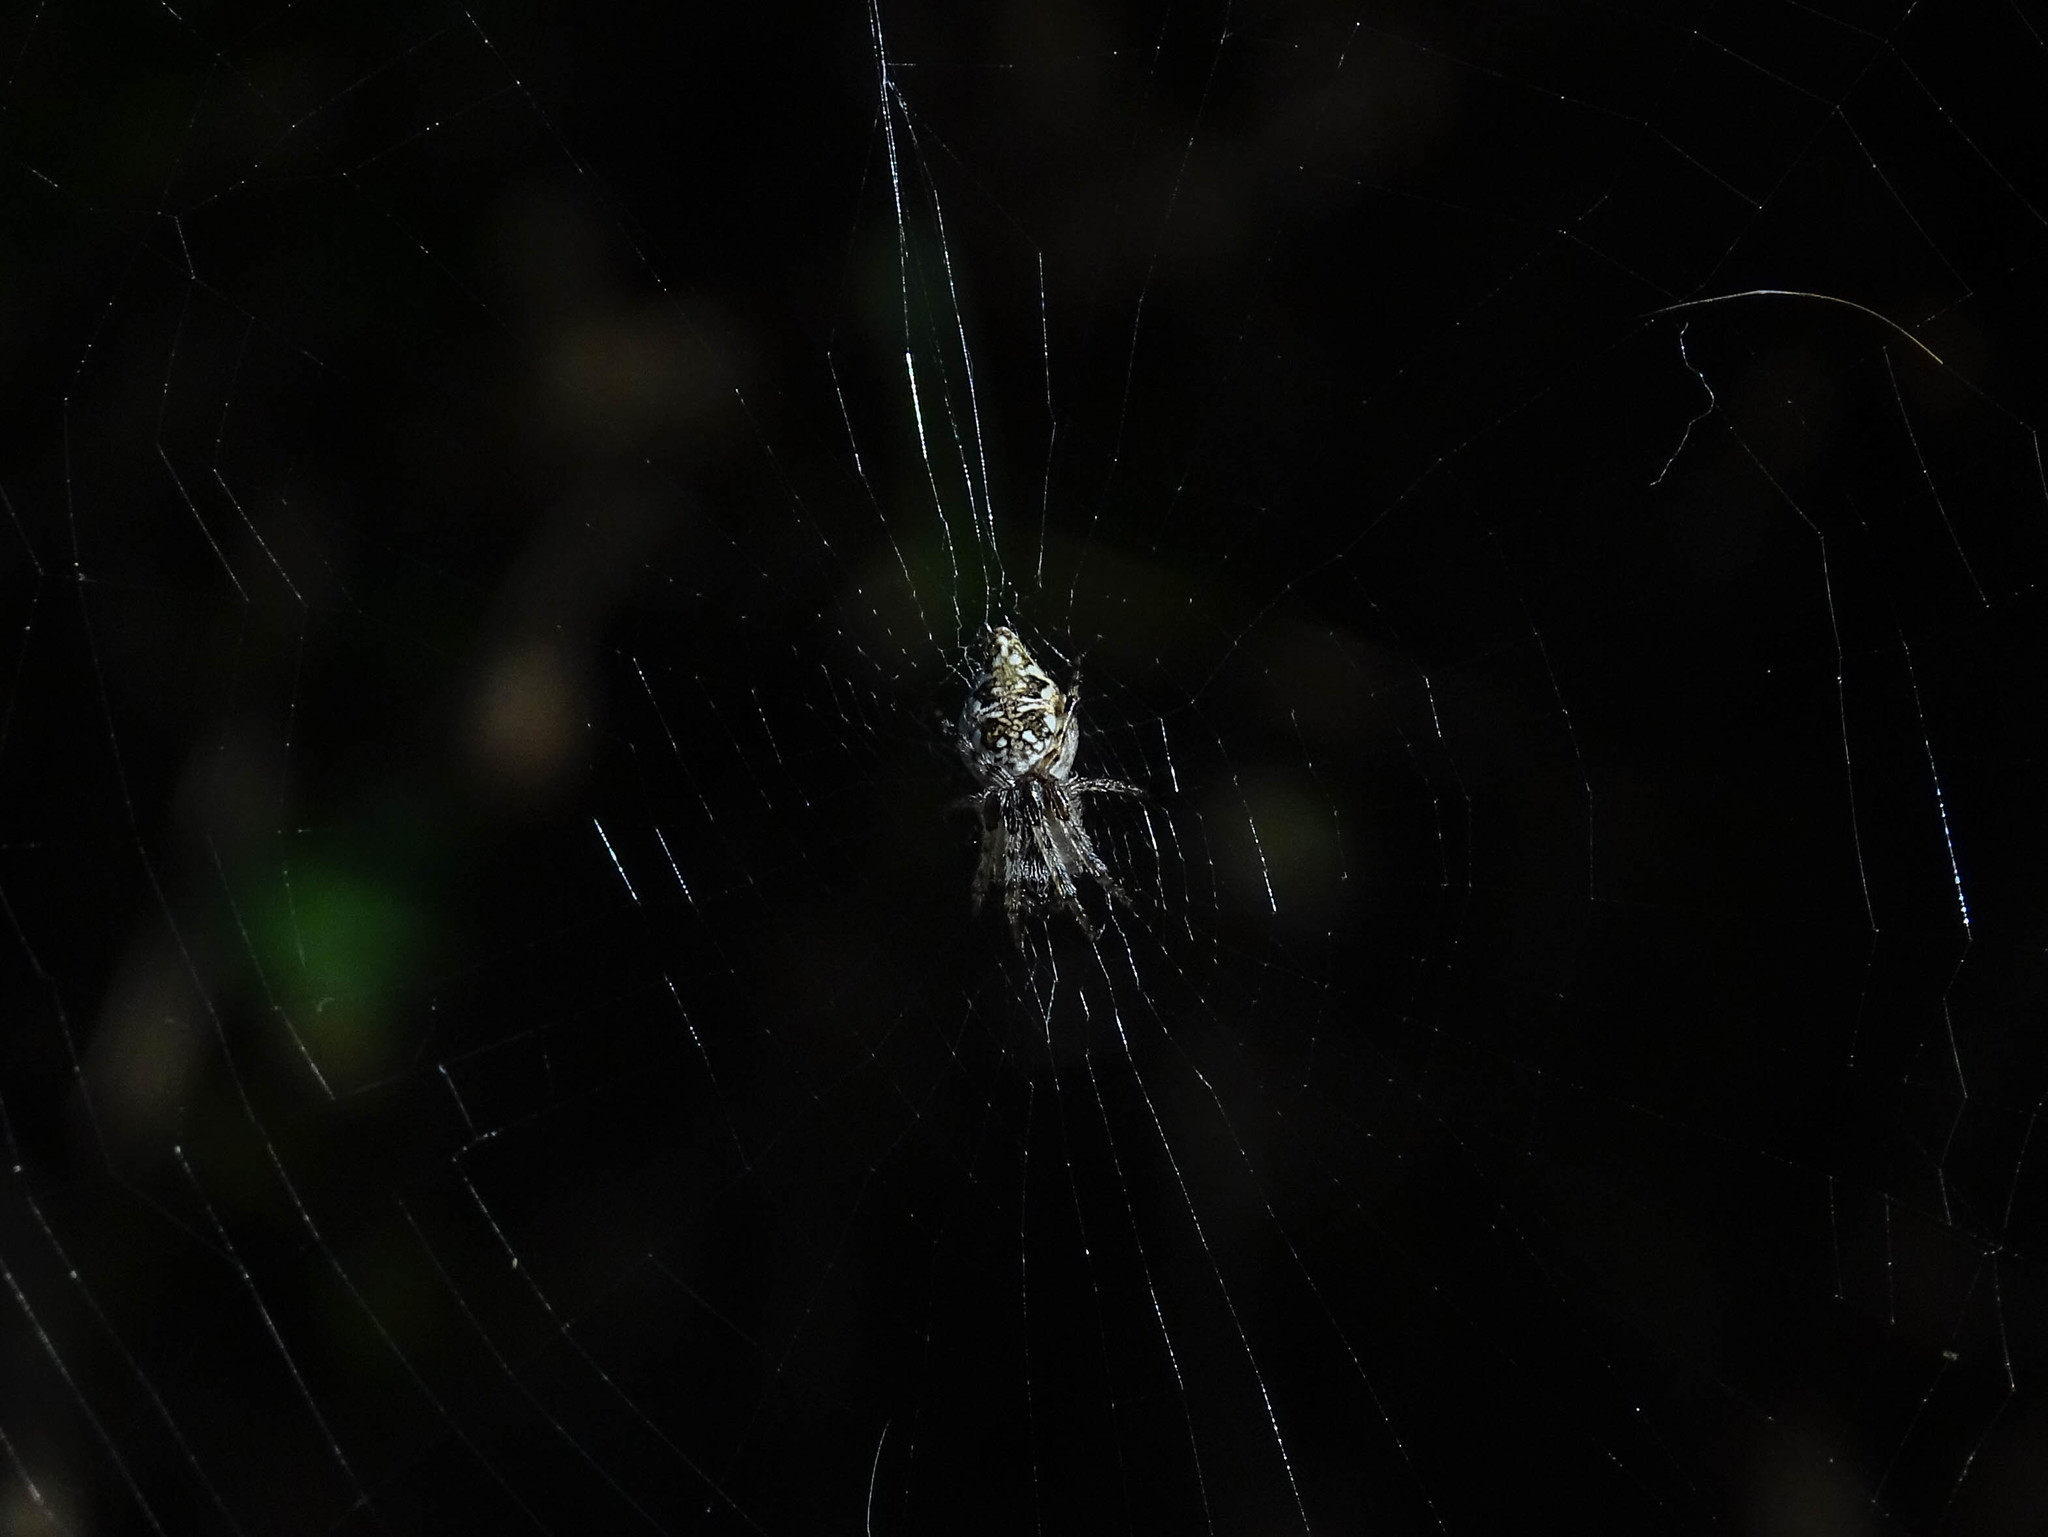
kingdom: Animalia
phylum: Arthropoda
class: Arachnida
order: Araneae
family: Araneidae
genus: Cyclosa
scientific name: Cyclosa conica
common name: Conical trashline orbweaver
